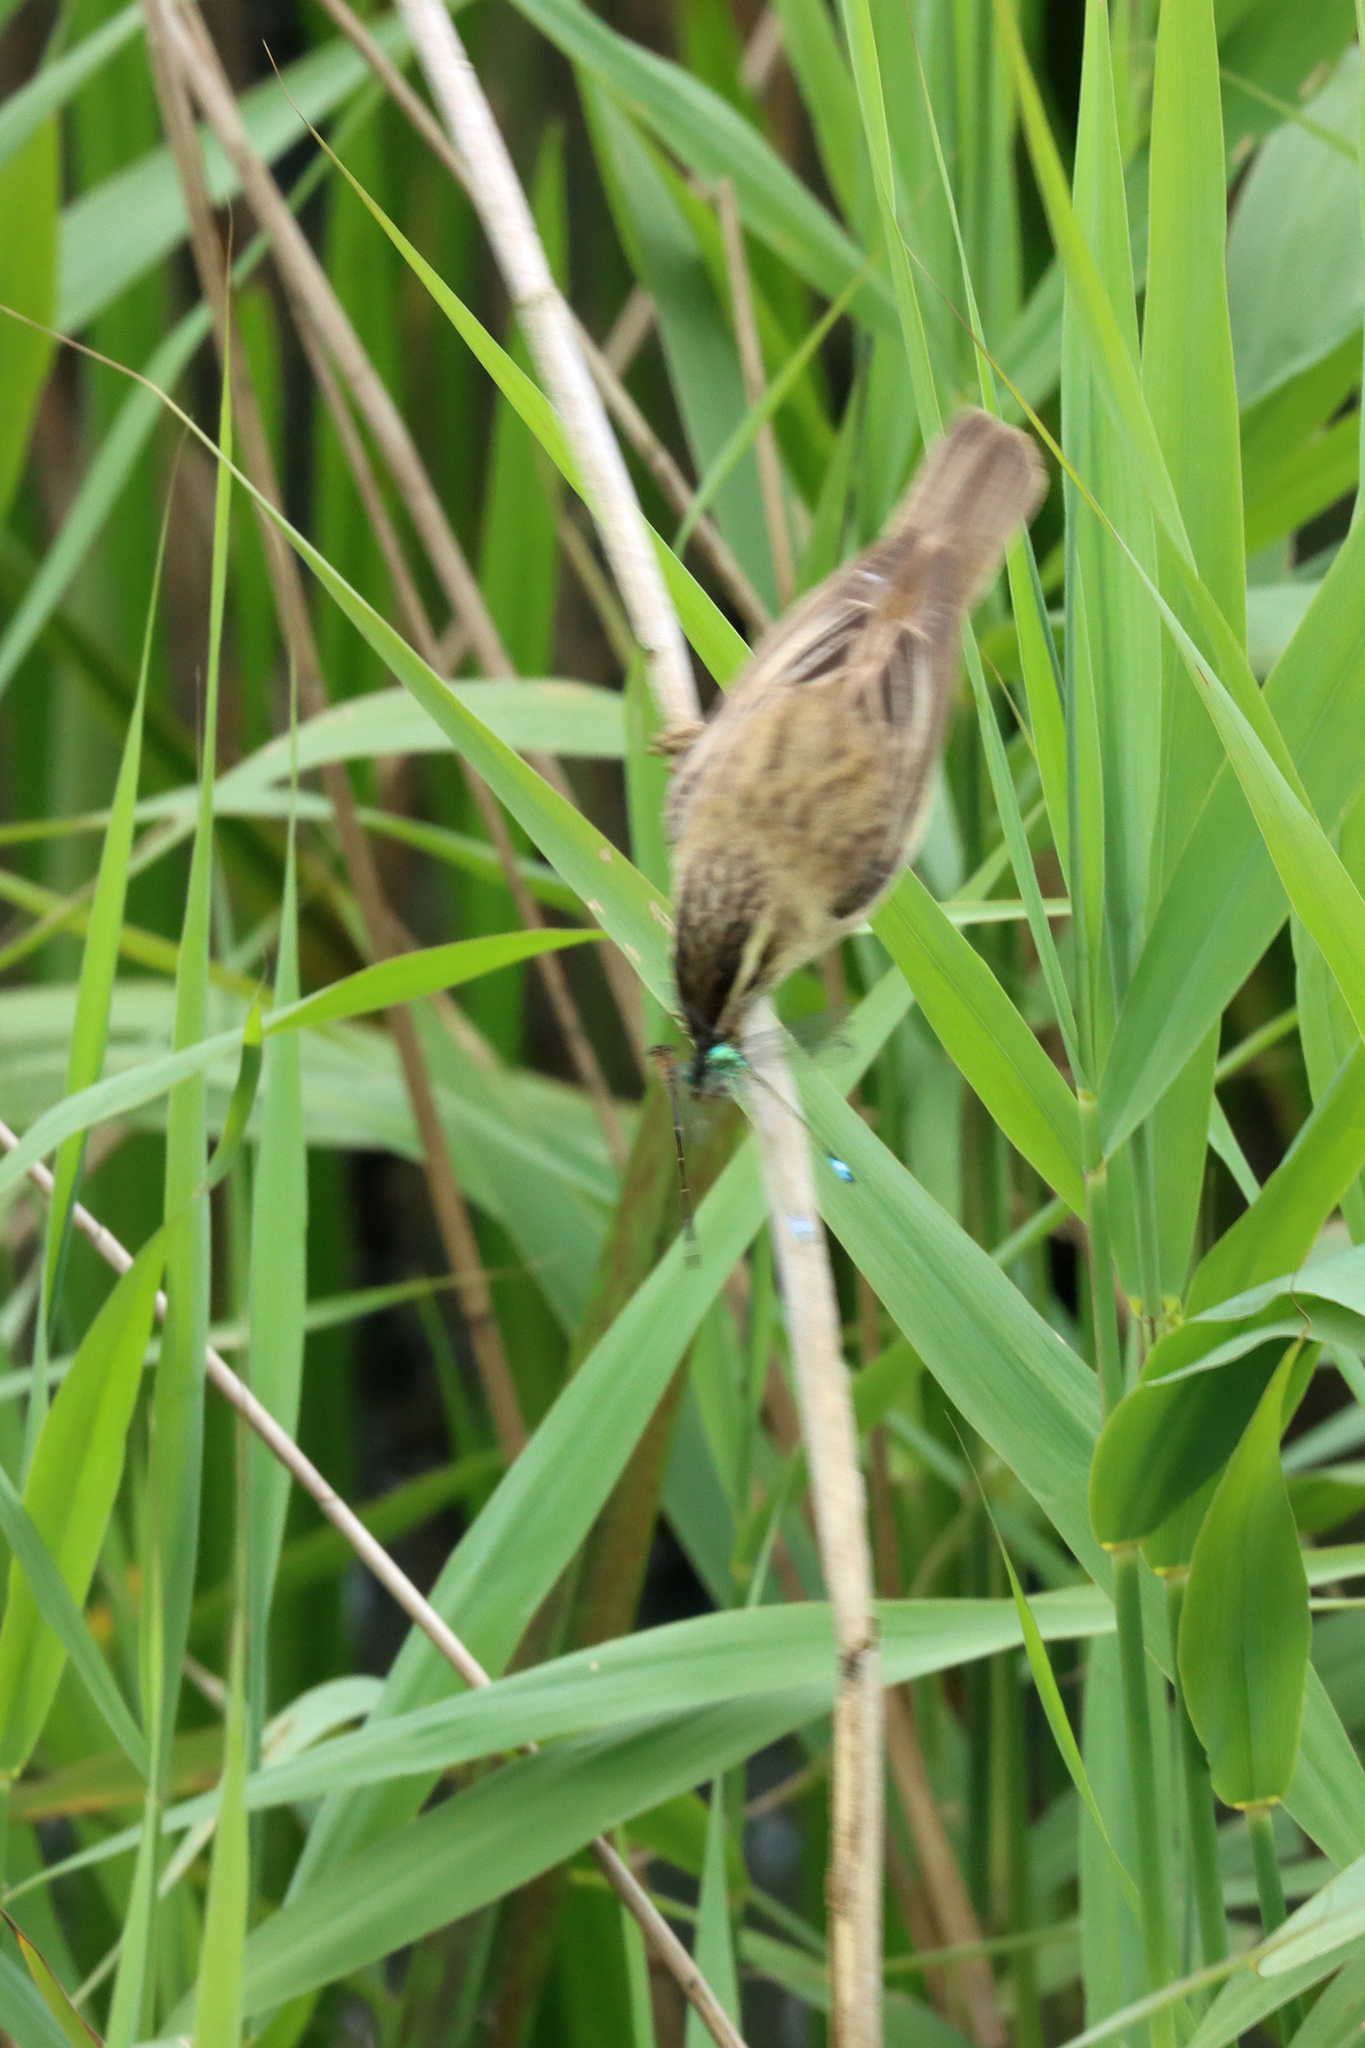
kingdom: Animalia
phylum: Chordata
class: Aves
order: Passeriformes
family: Acrocephalidae
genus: Acrocephalus
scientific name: Acrocephalus schoenobaenus
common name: Sedge warbler
